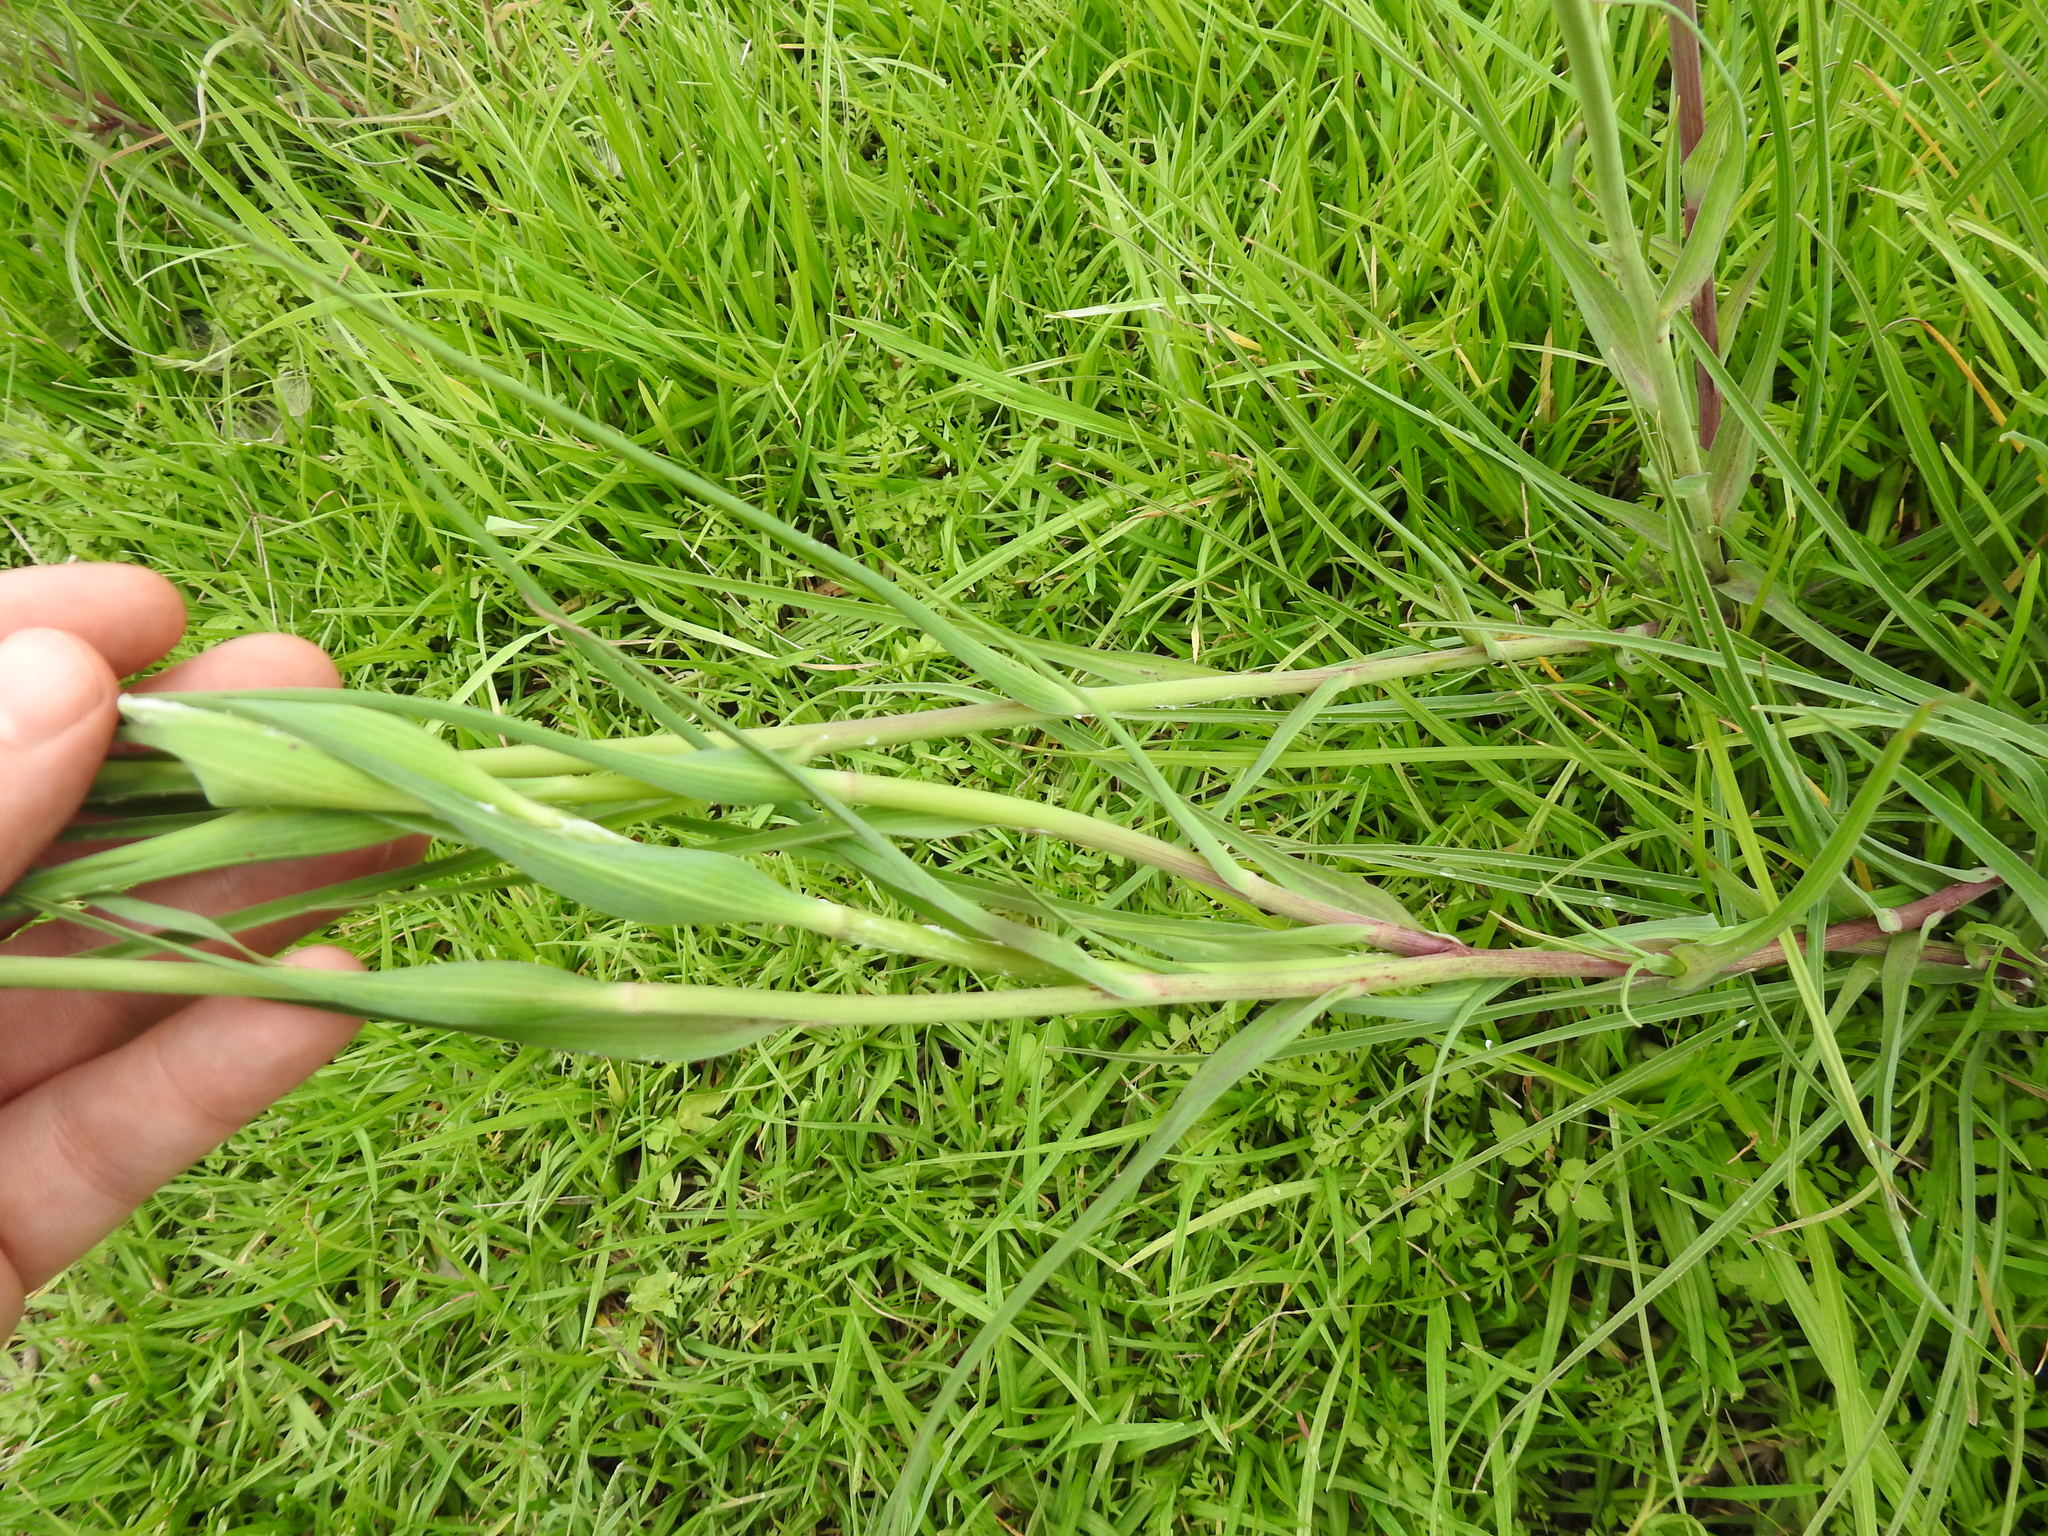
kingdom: Plantae
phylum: Tracheophyta
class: Magnoliopsida
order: Asterales
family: Asteraceae
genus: Tragopogon
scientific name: Tragopogon dubius
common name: Yellow salsify
